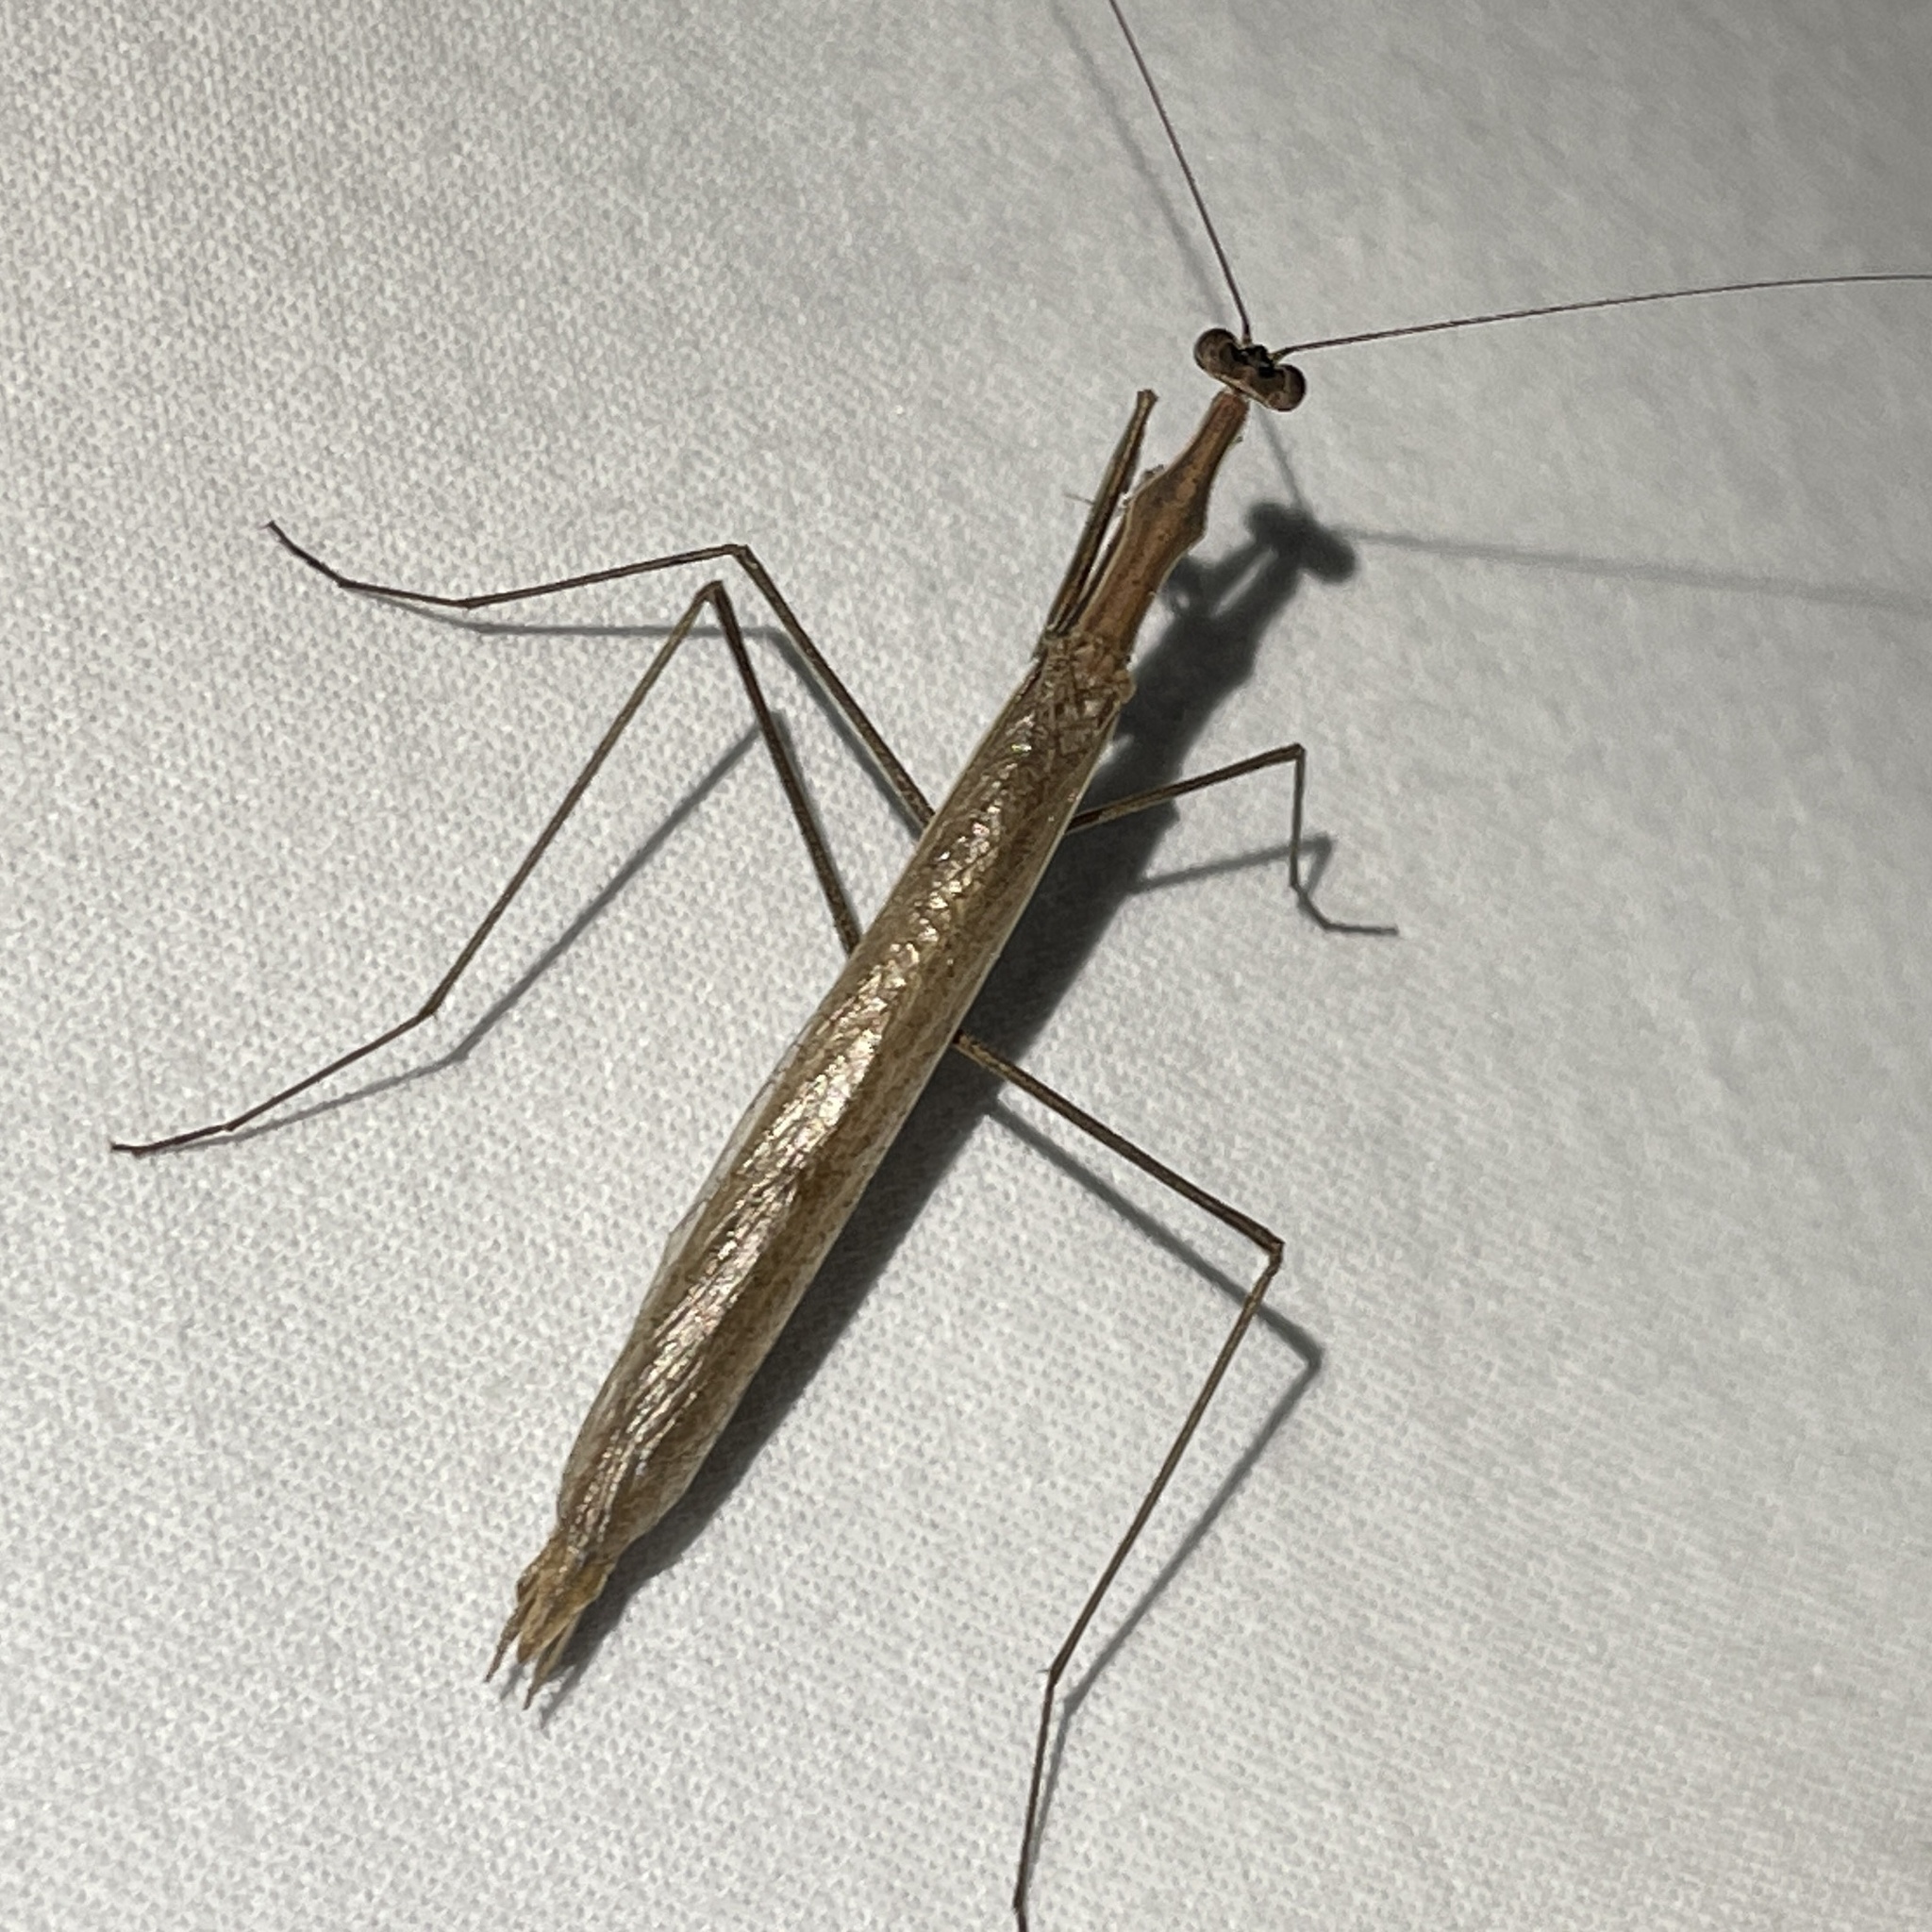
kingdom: Animalia
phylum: Arthropoda
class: Insecta
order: Mantodea
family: Thespidae
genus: Thespis
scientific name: Thespis parva
